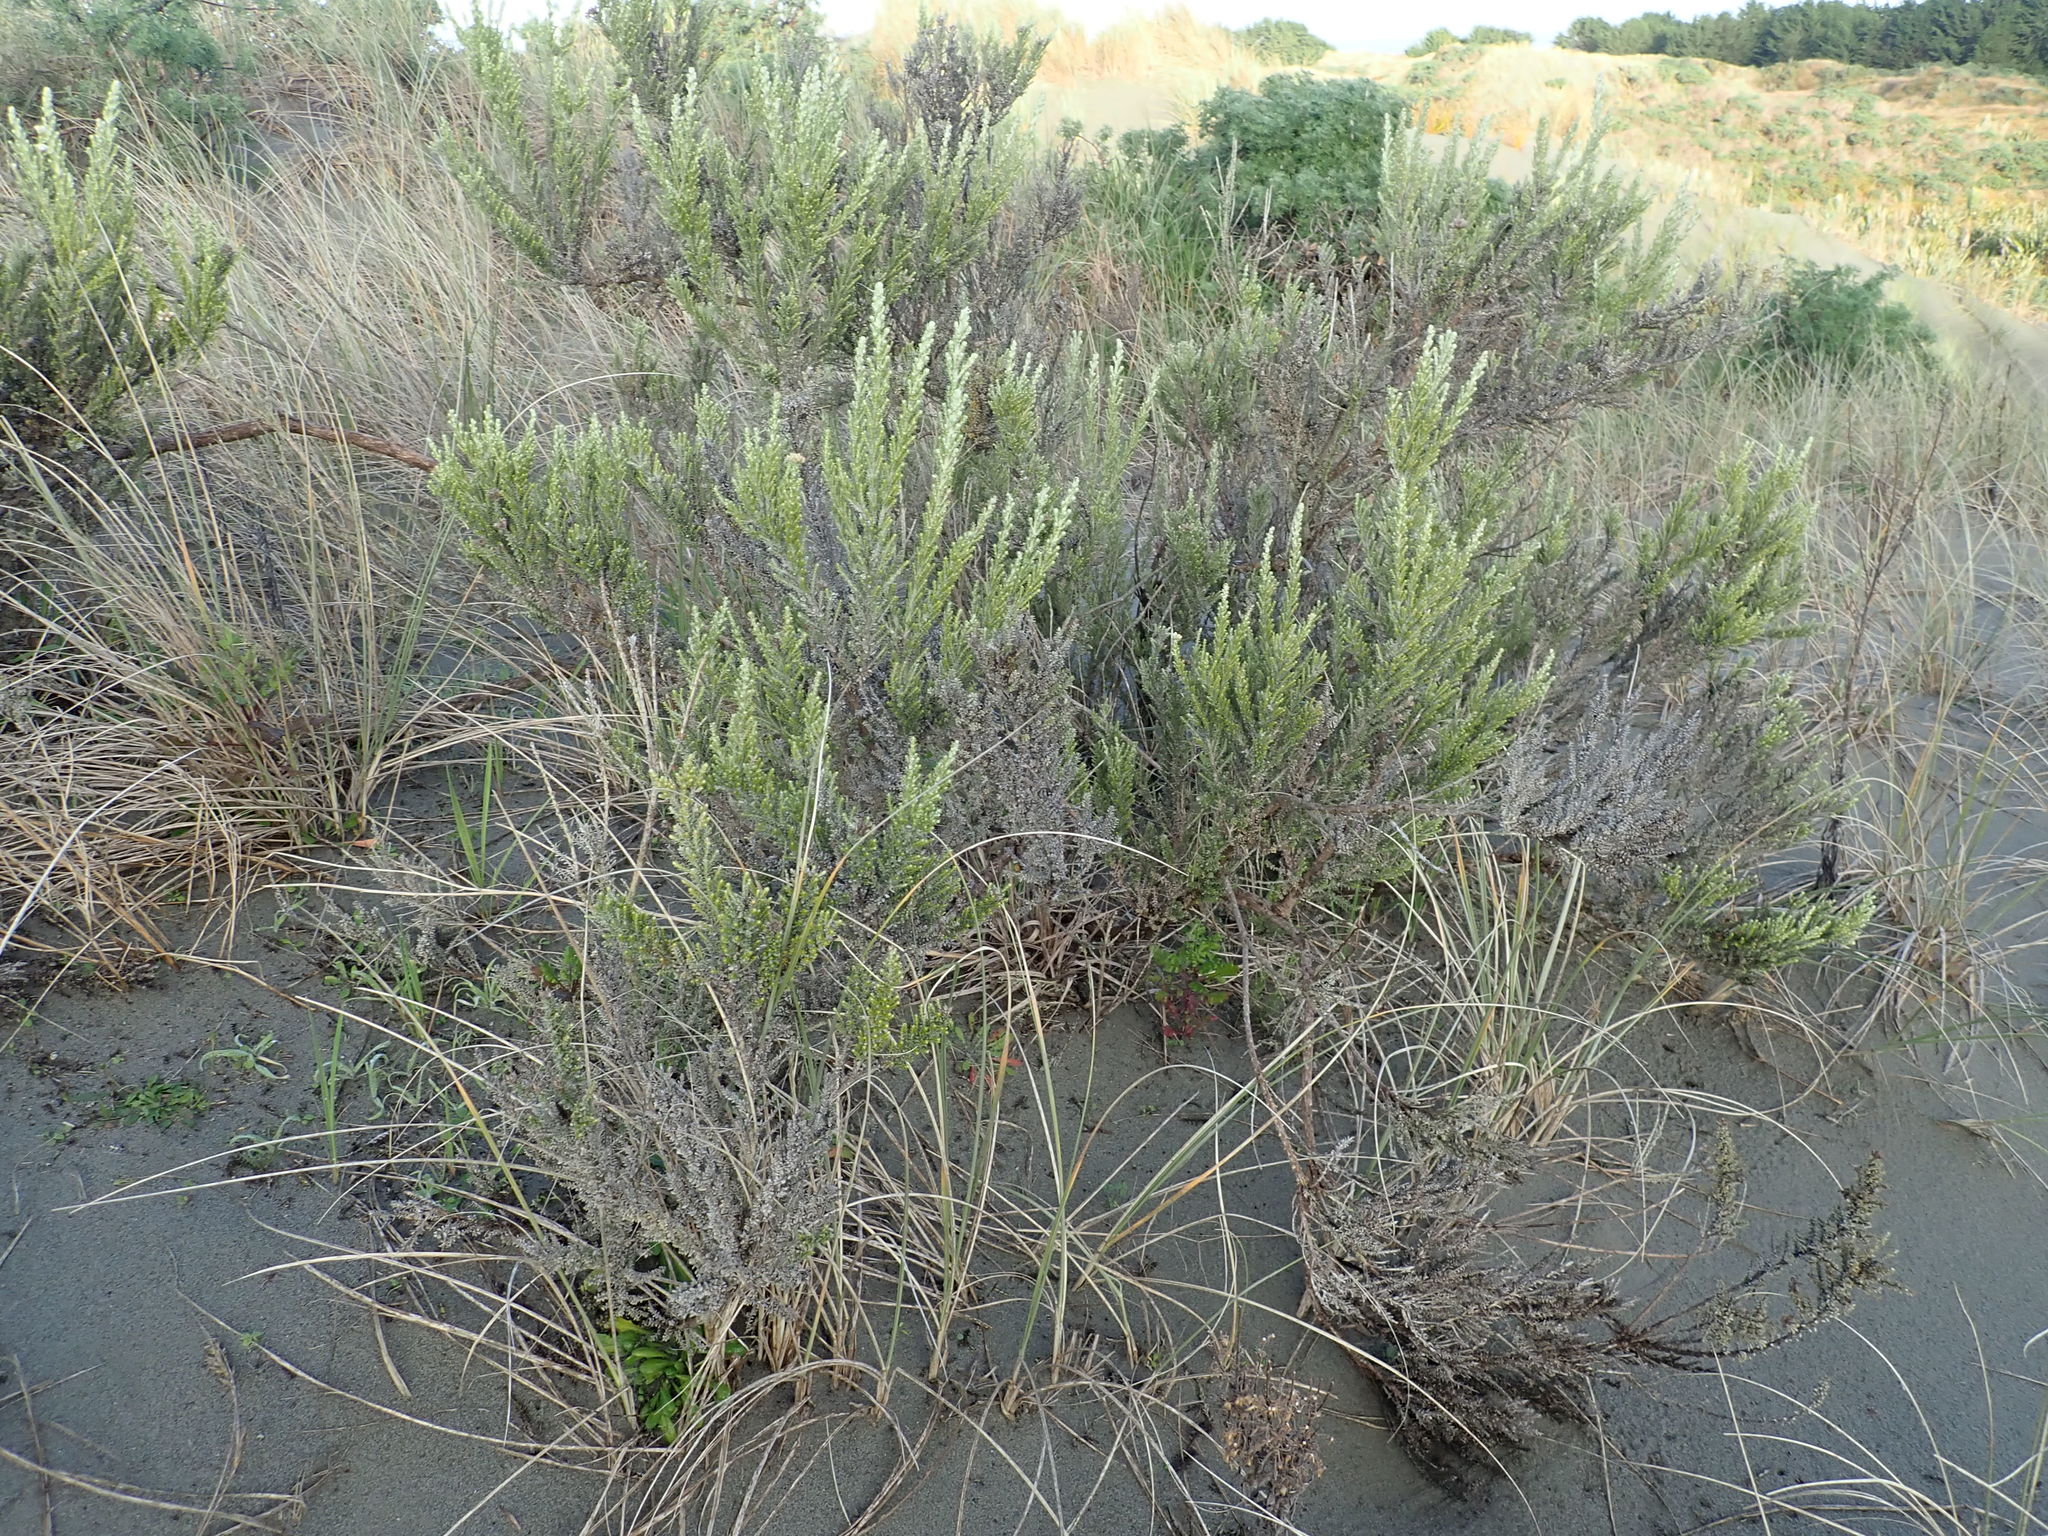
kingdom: Plantae
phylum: Tracheophyta
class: Magnoliopsida
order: Asterales
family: Asteraceae
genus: Ozothamnus
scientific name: Ozothamnus leptophyllus
